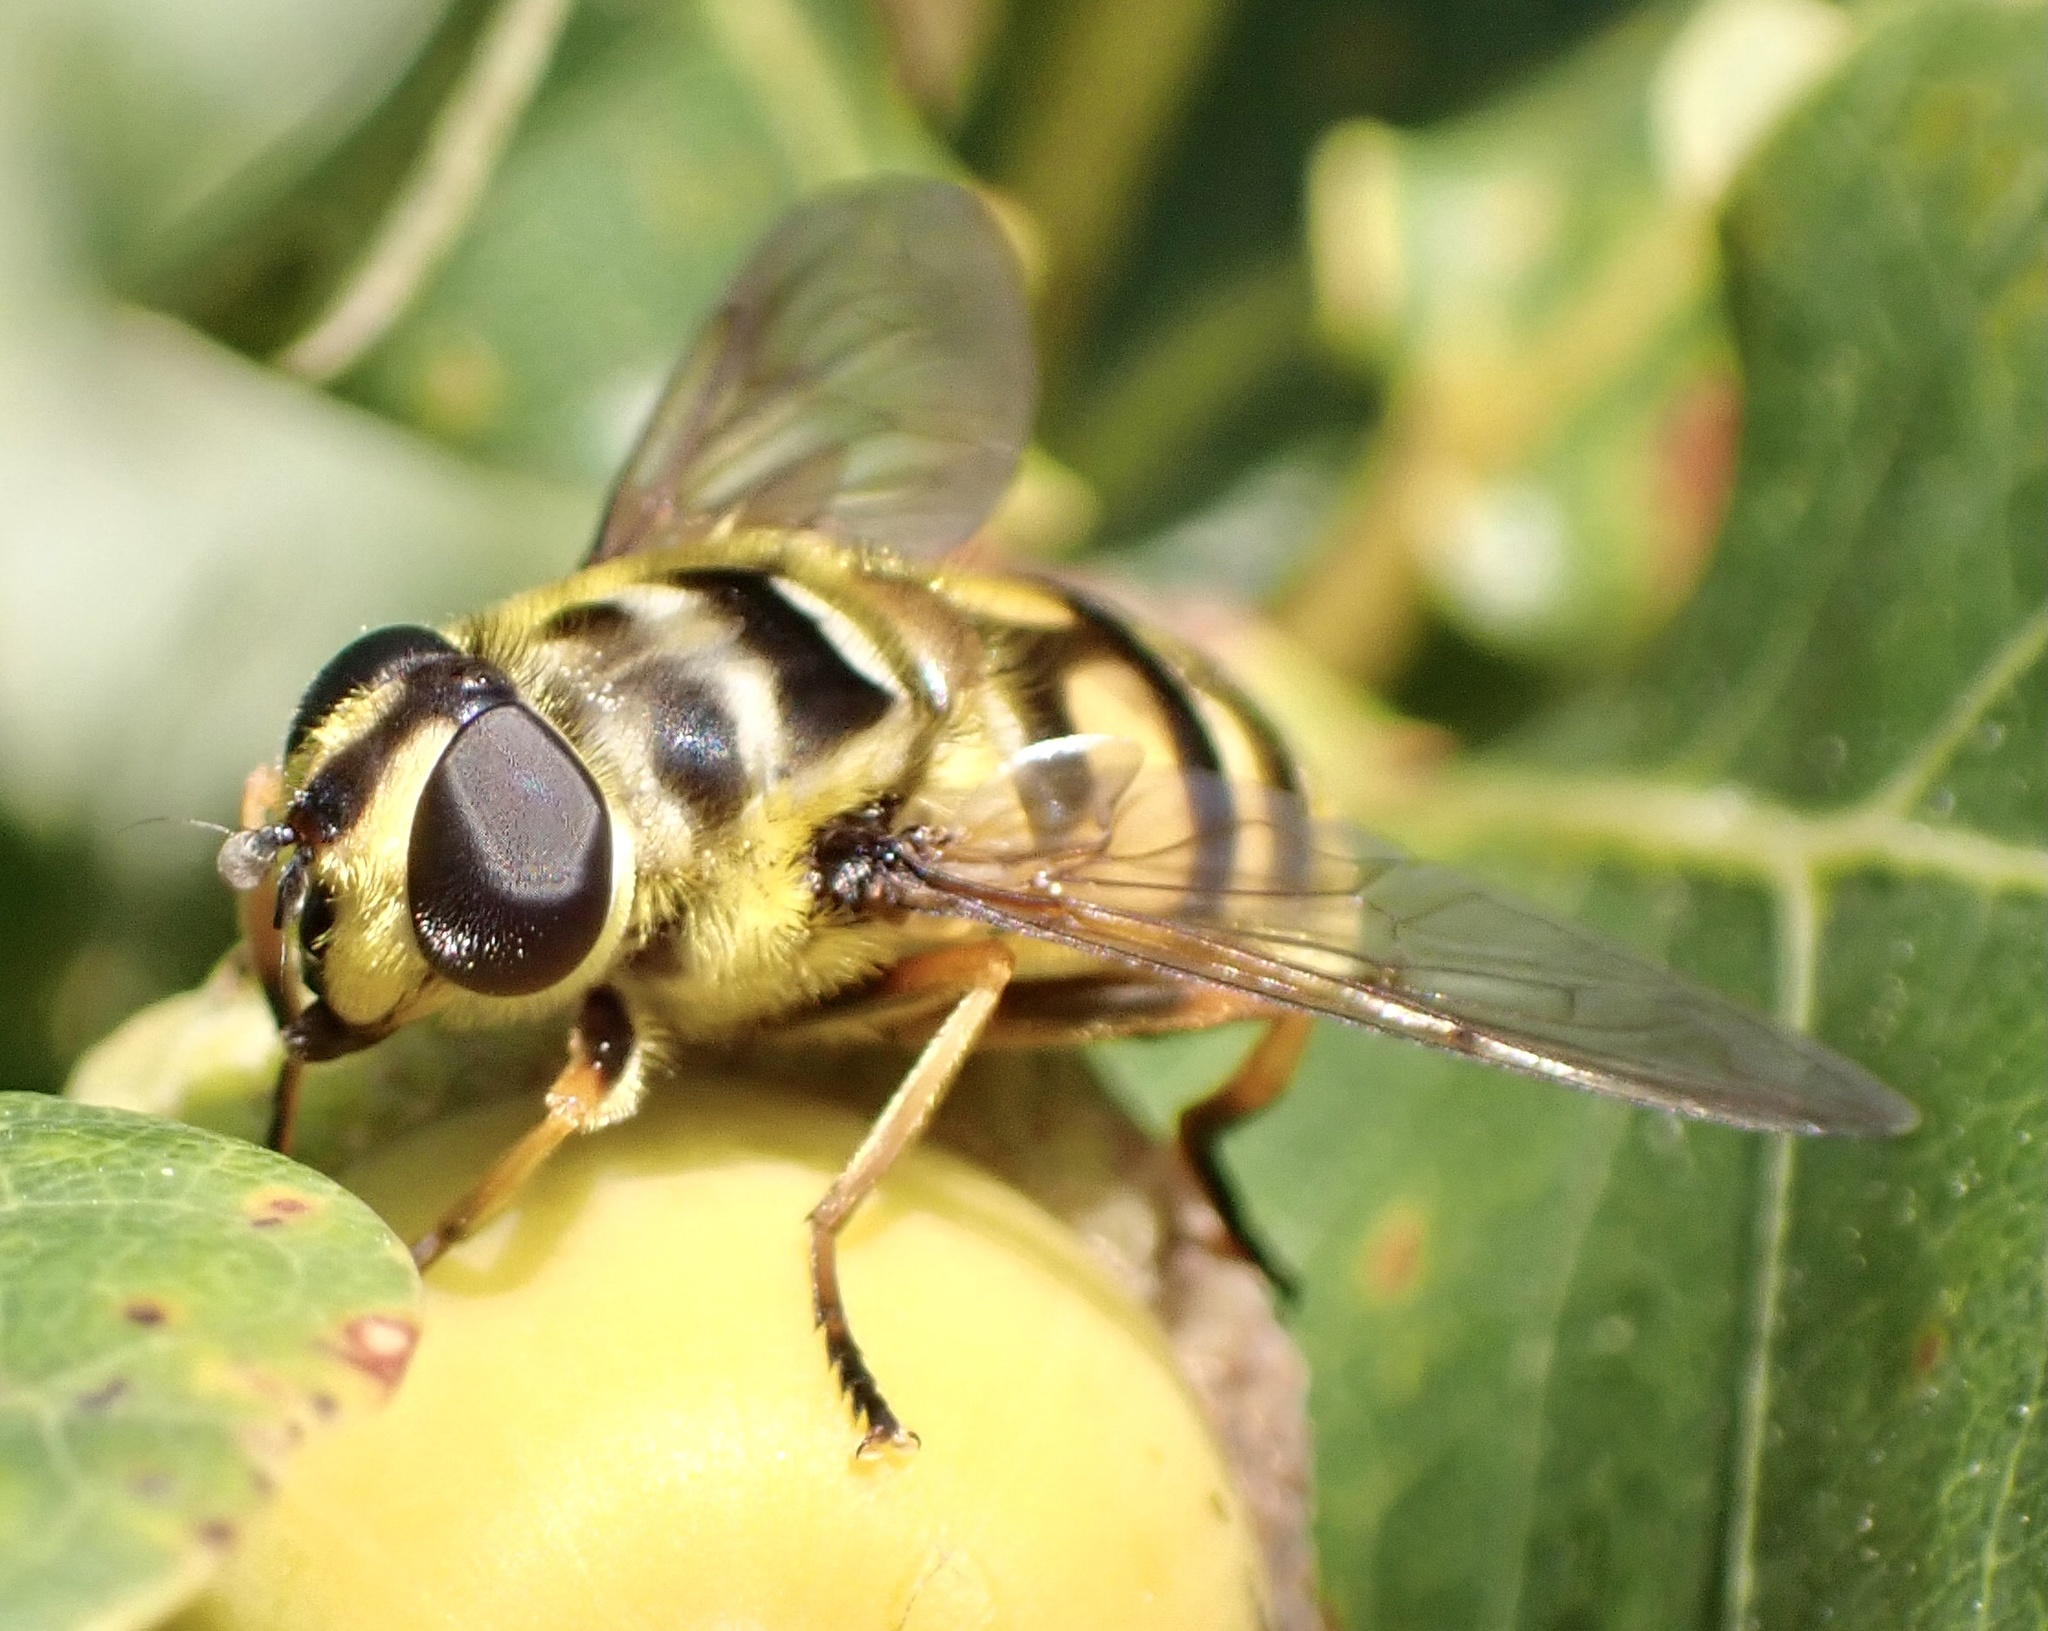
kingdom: Animalia
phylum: Arthropoda
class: Insecta
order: Diptera
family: Syrphidae
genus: Myathropa
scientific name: Myathropa florea
